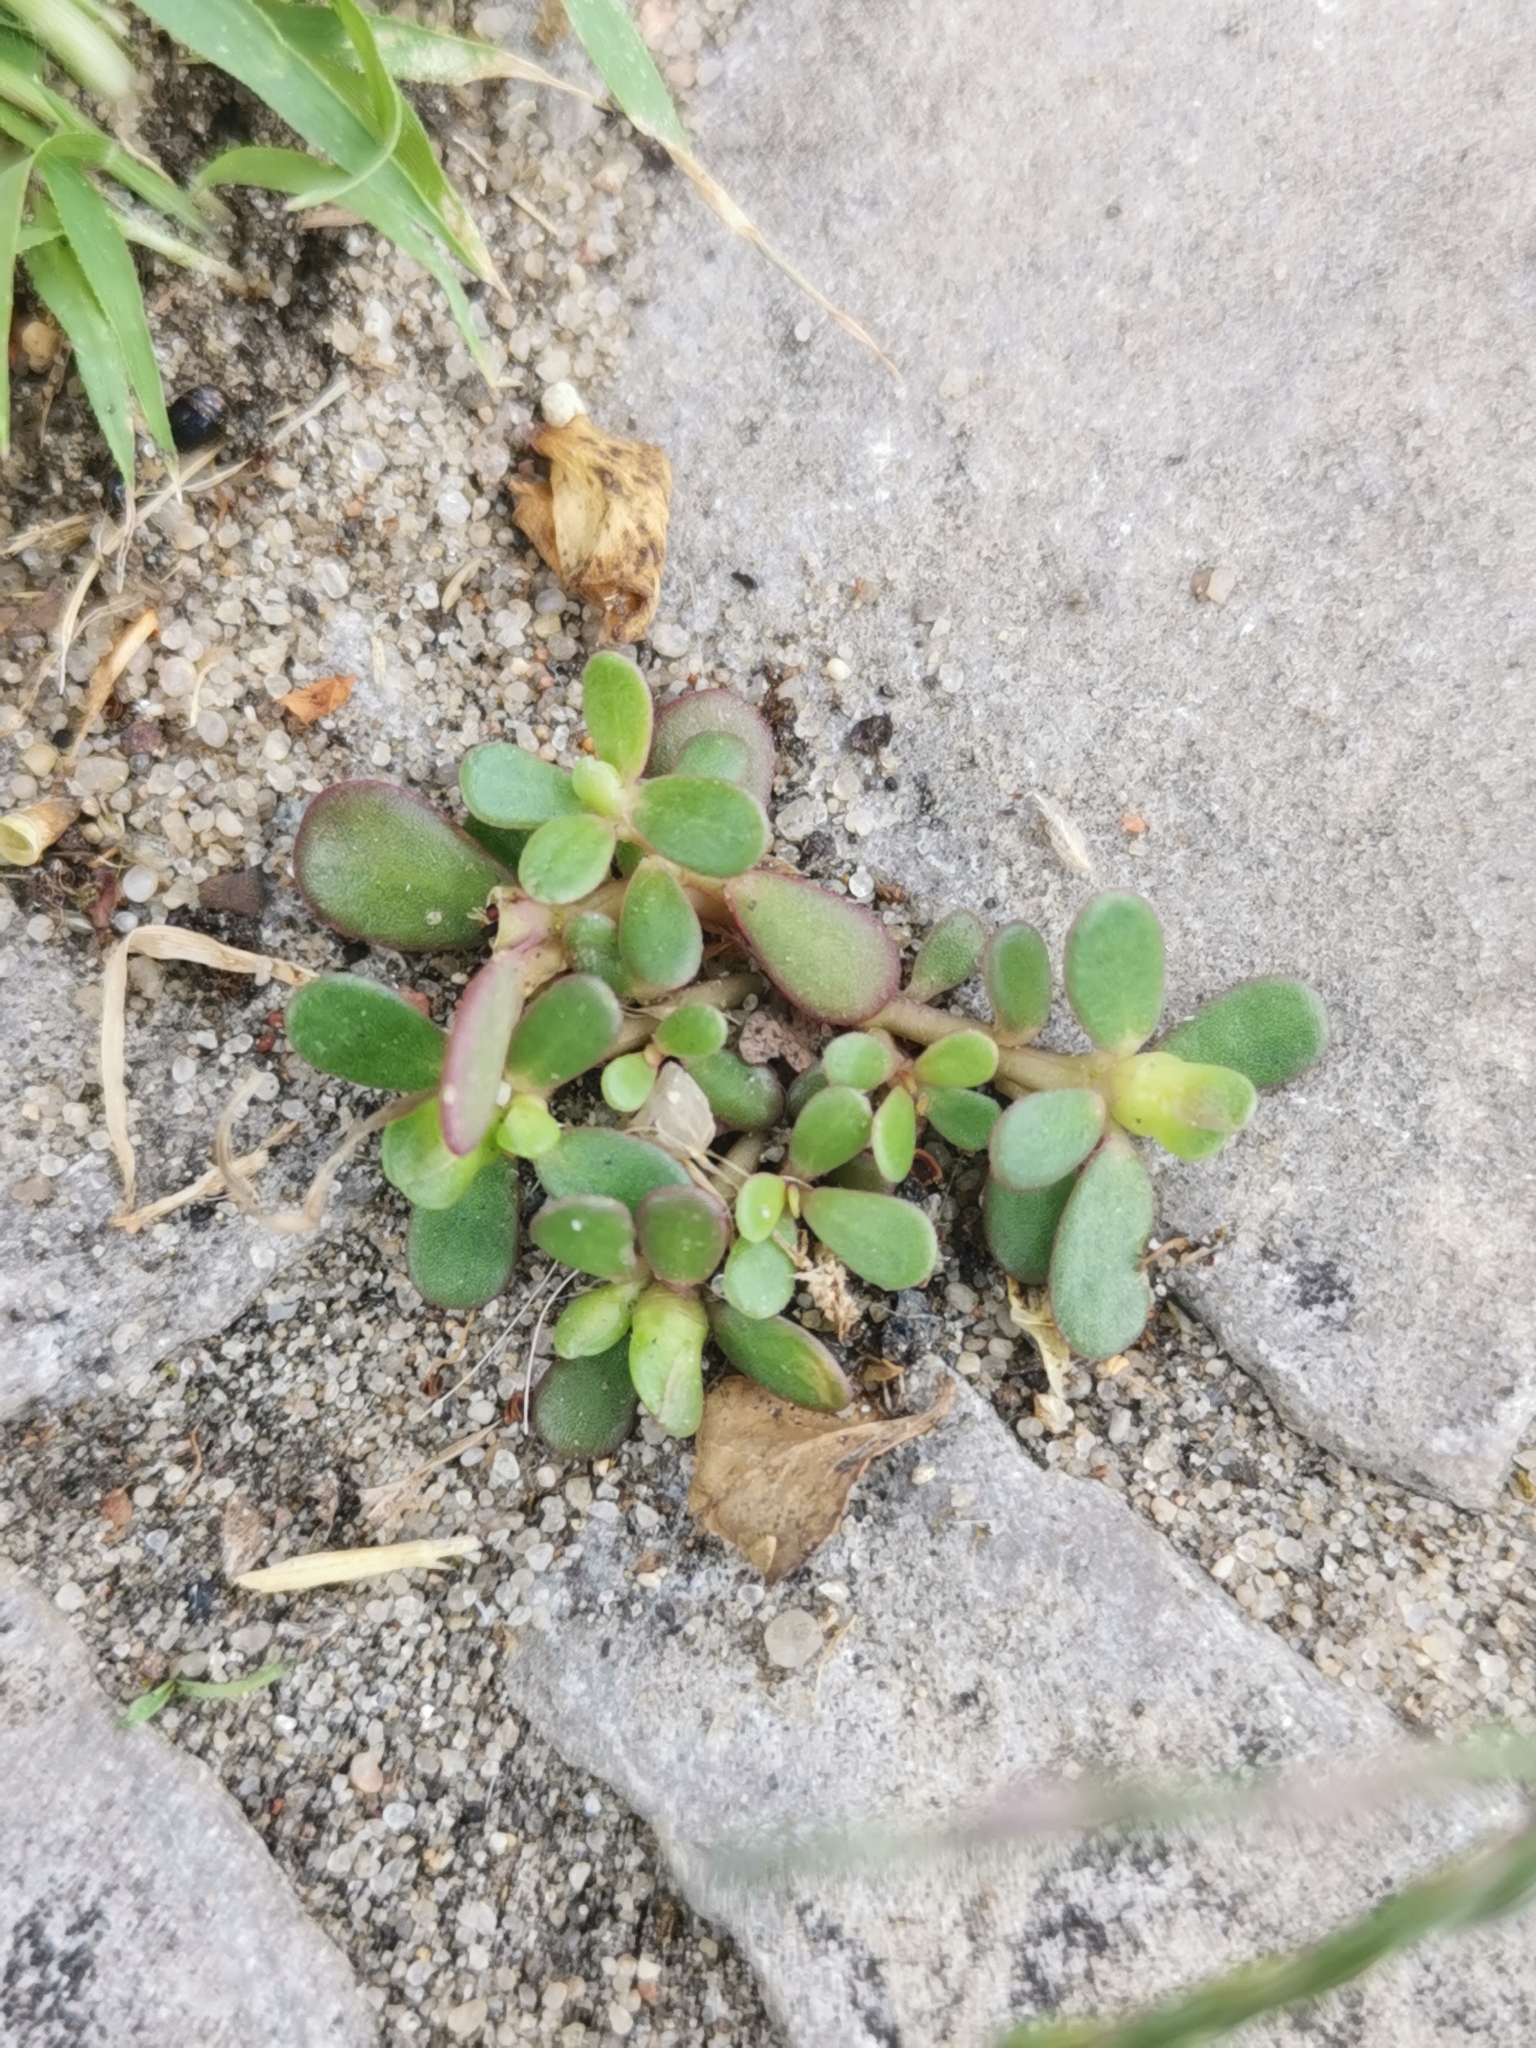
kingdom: Plantae
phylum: Tracheophyta
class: Magnoliopsida
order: Caryophyllales
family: Portulacaceae
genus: Portulaca
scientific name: Portulaca oleracea
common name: Common purslane
